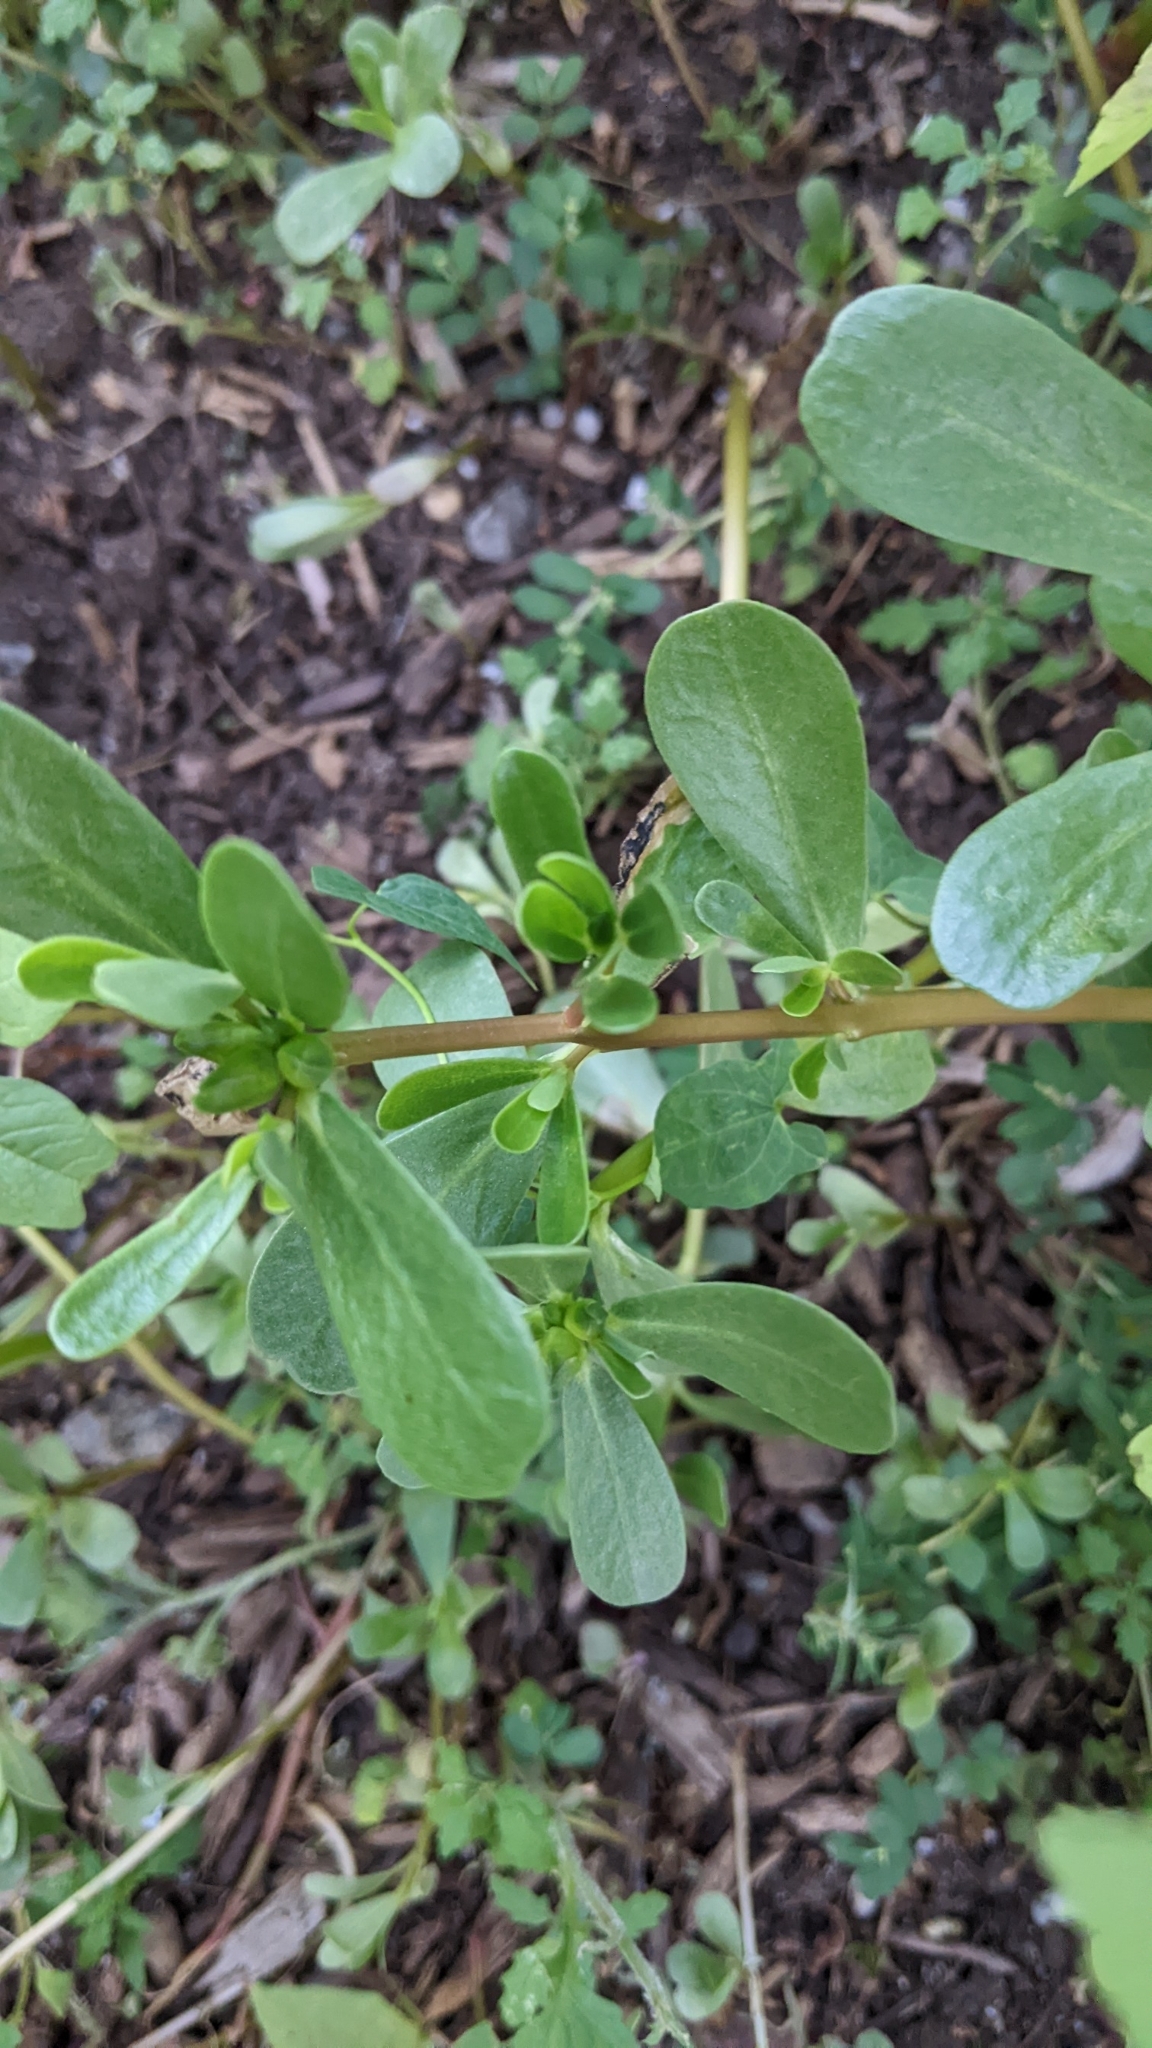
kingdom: Plantae
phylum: Tracheophyta
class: Magnoliopsida
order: Caryophyllales
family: Portulacaceae
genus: Portulaca
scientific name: Portulaca oleracea
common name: Common purslane
